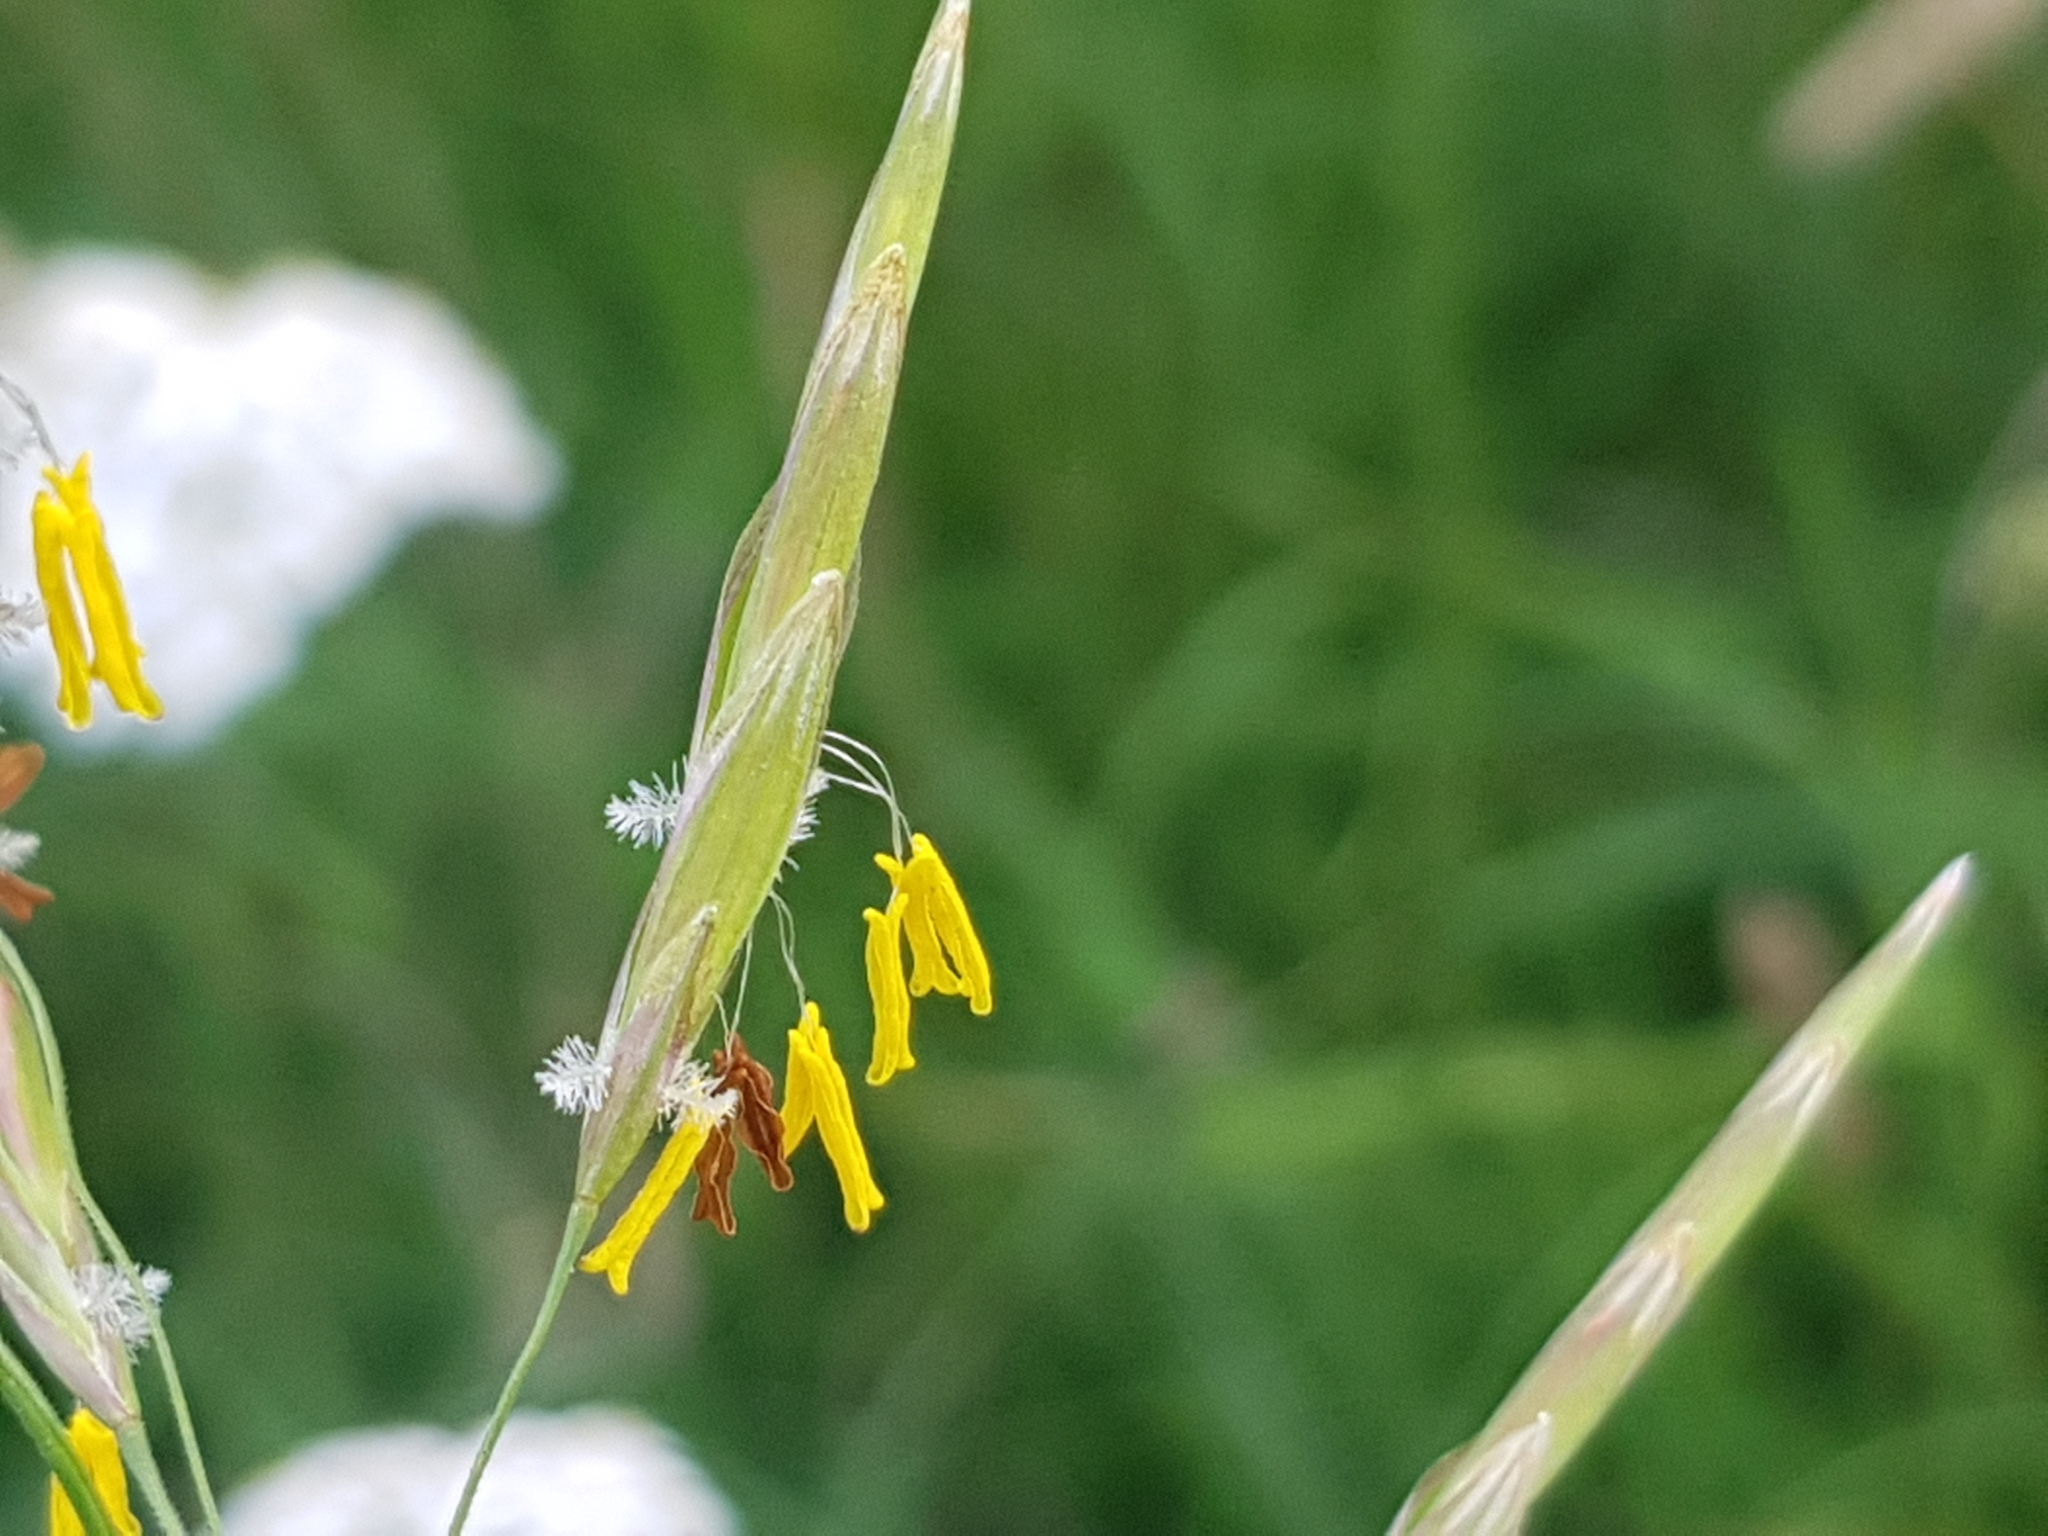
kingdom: Plantae
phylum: Tracheophyta
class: Liliopsida
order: Poales
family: Poaceae
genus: Bromus
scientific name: Bromus inermis
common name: Smooth brome
